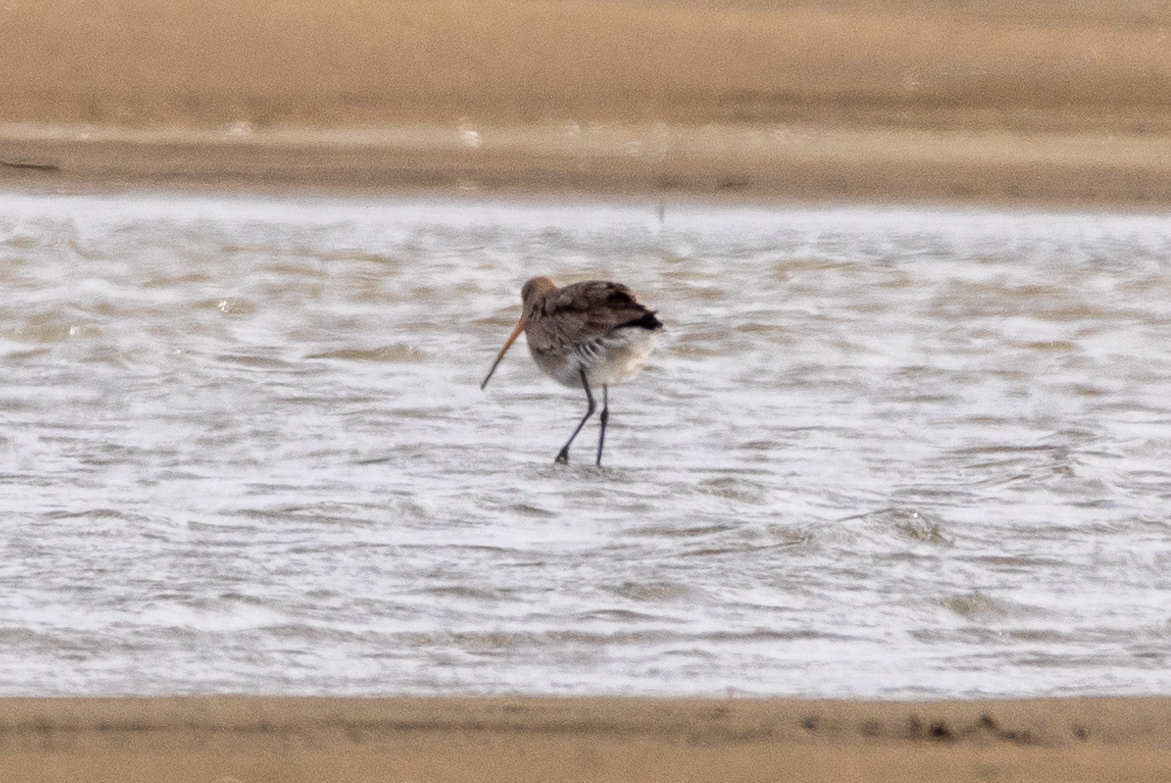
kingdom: Animalia
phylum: Chordata
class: Aves
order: Charadriiformes
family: Scolopacidae
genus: Limosa
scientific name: Limosa limosa
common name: Black-tailed godwit
